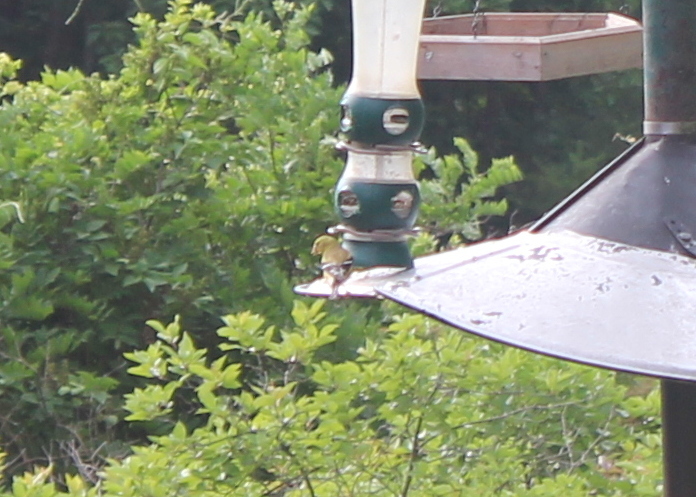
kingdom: Animalia
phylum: Chordata
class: Aves
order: Passeriformes
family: Fringillidae
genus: Spinus
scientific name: Spinus tristis
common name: American goldfinch
